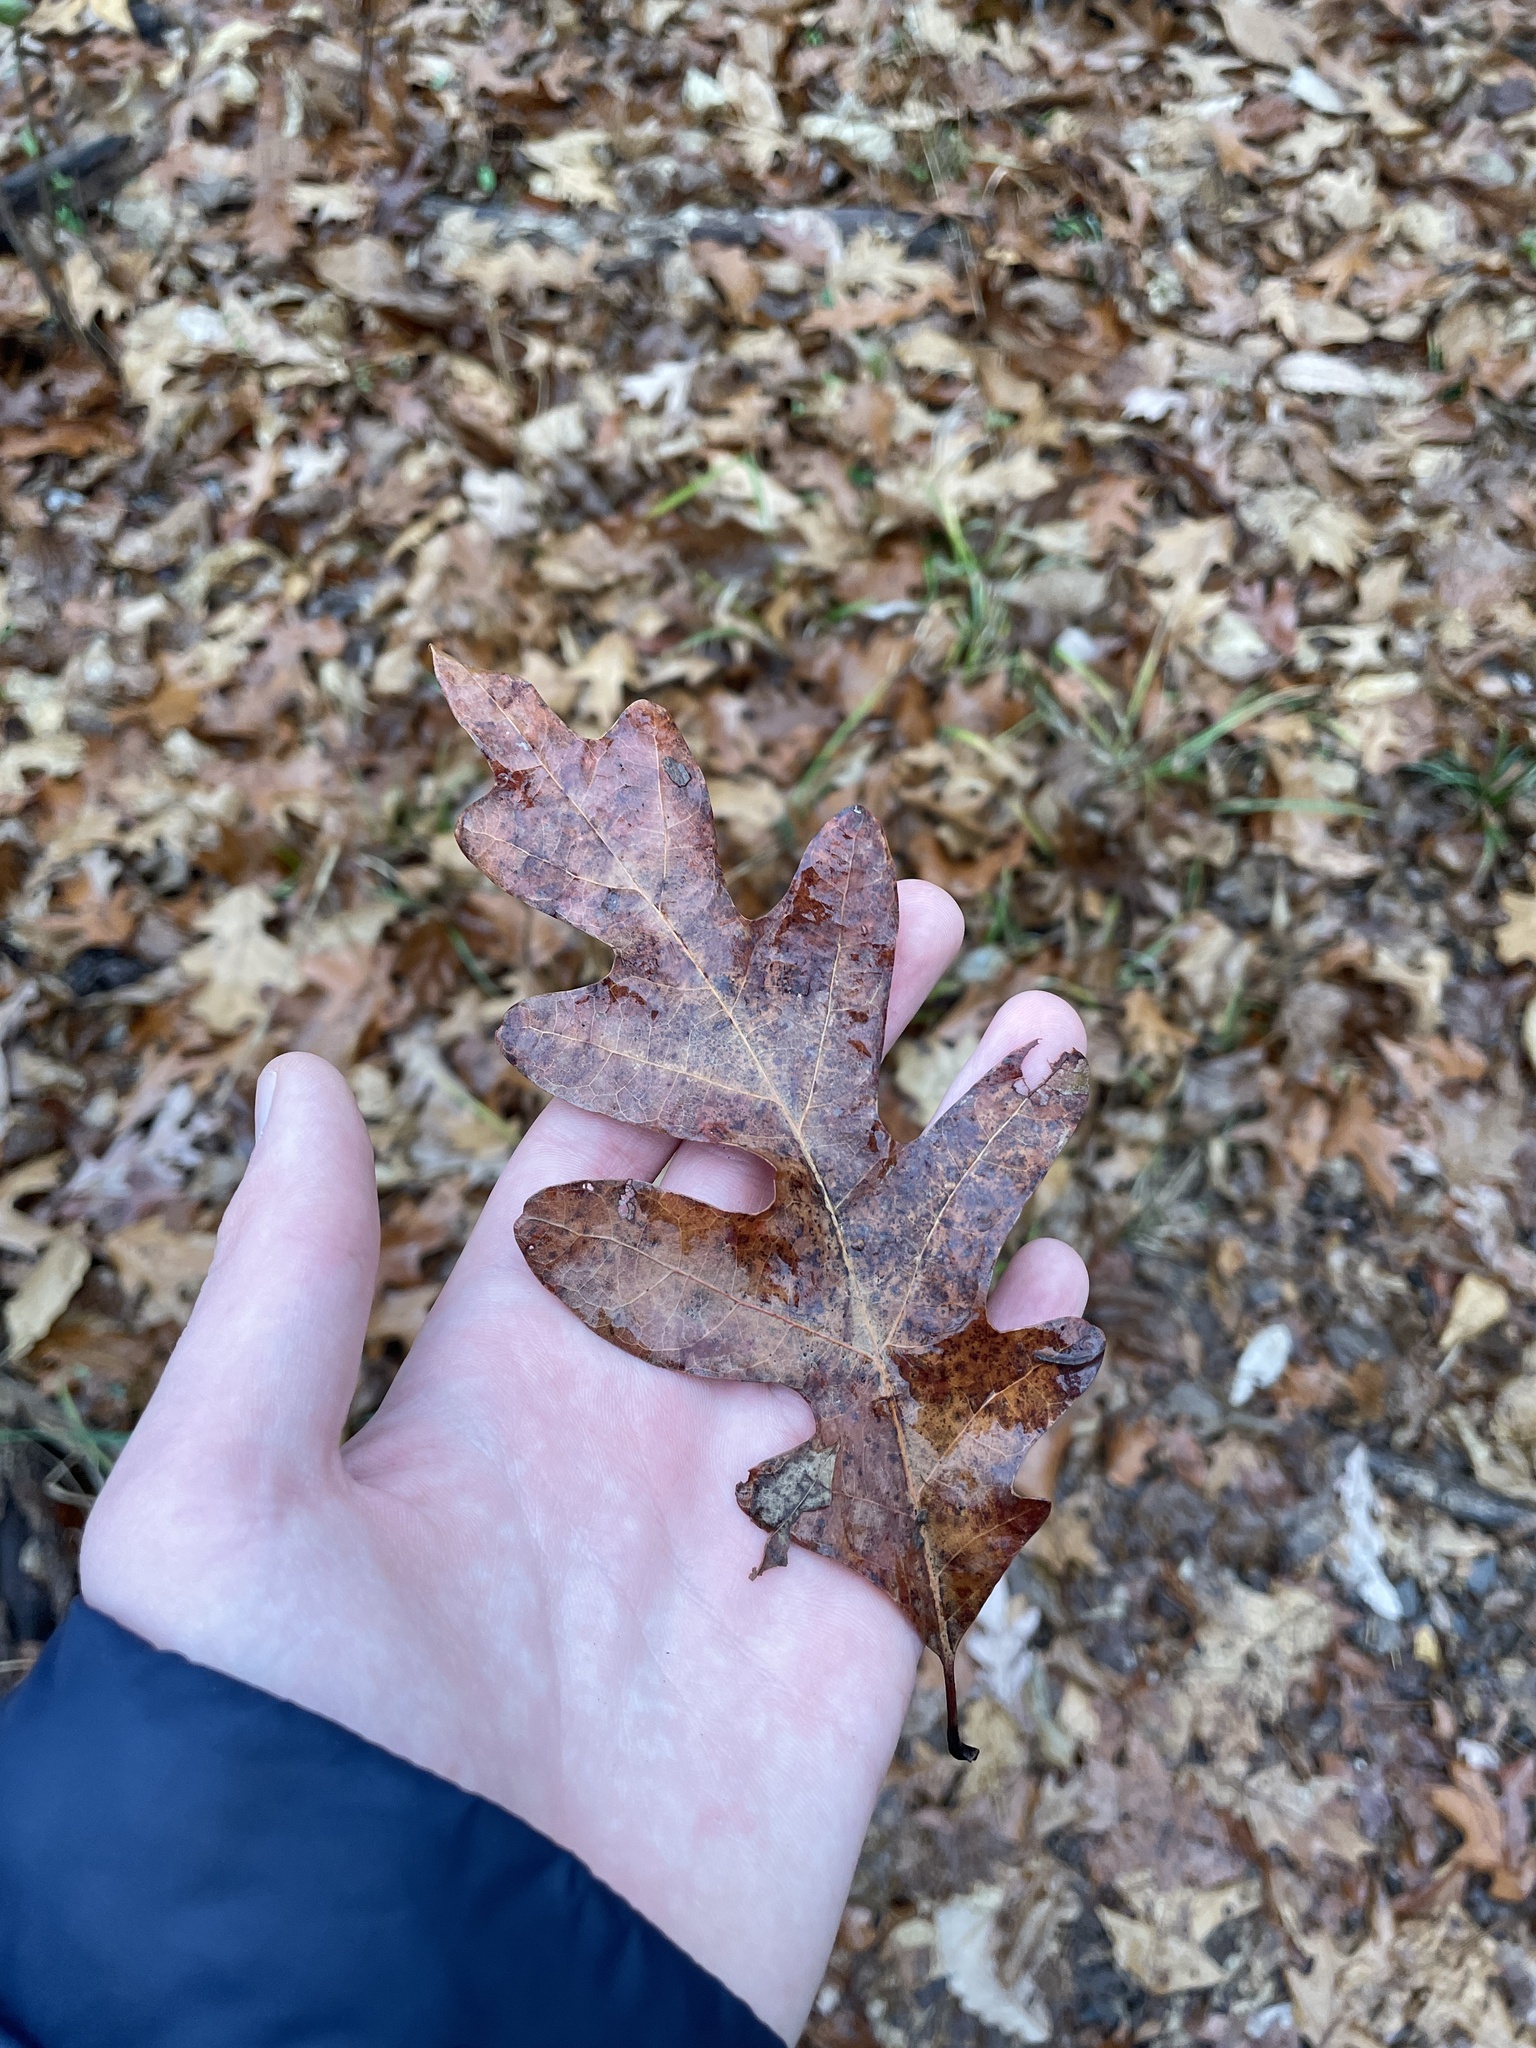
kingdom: Plantae
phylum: Tracheophyta
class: Magnoliopsida
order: Fagales
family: Fagaceae
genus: Quercus
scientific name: Quercus alba
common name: White oak
